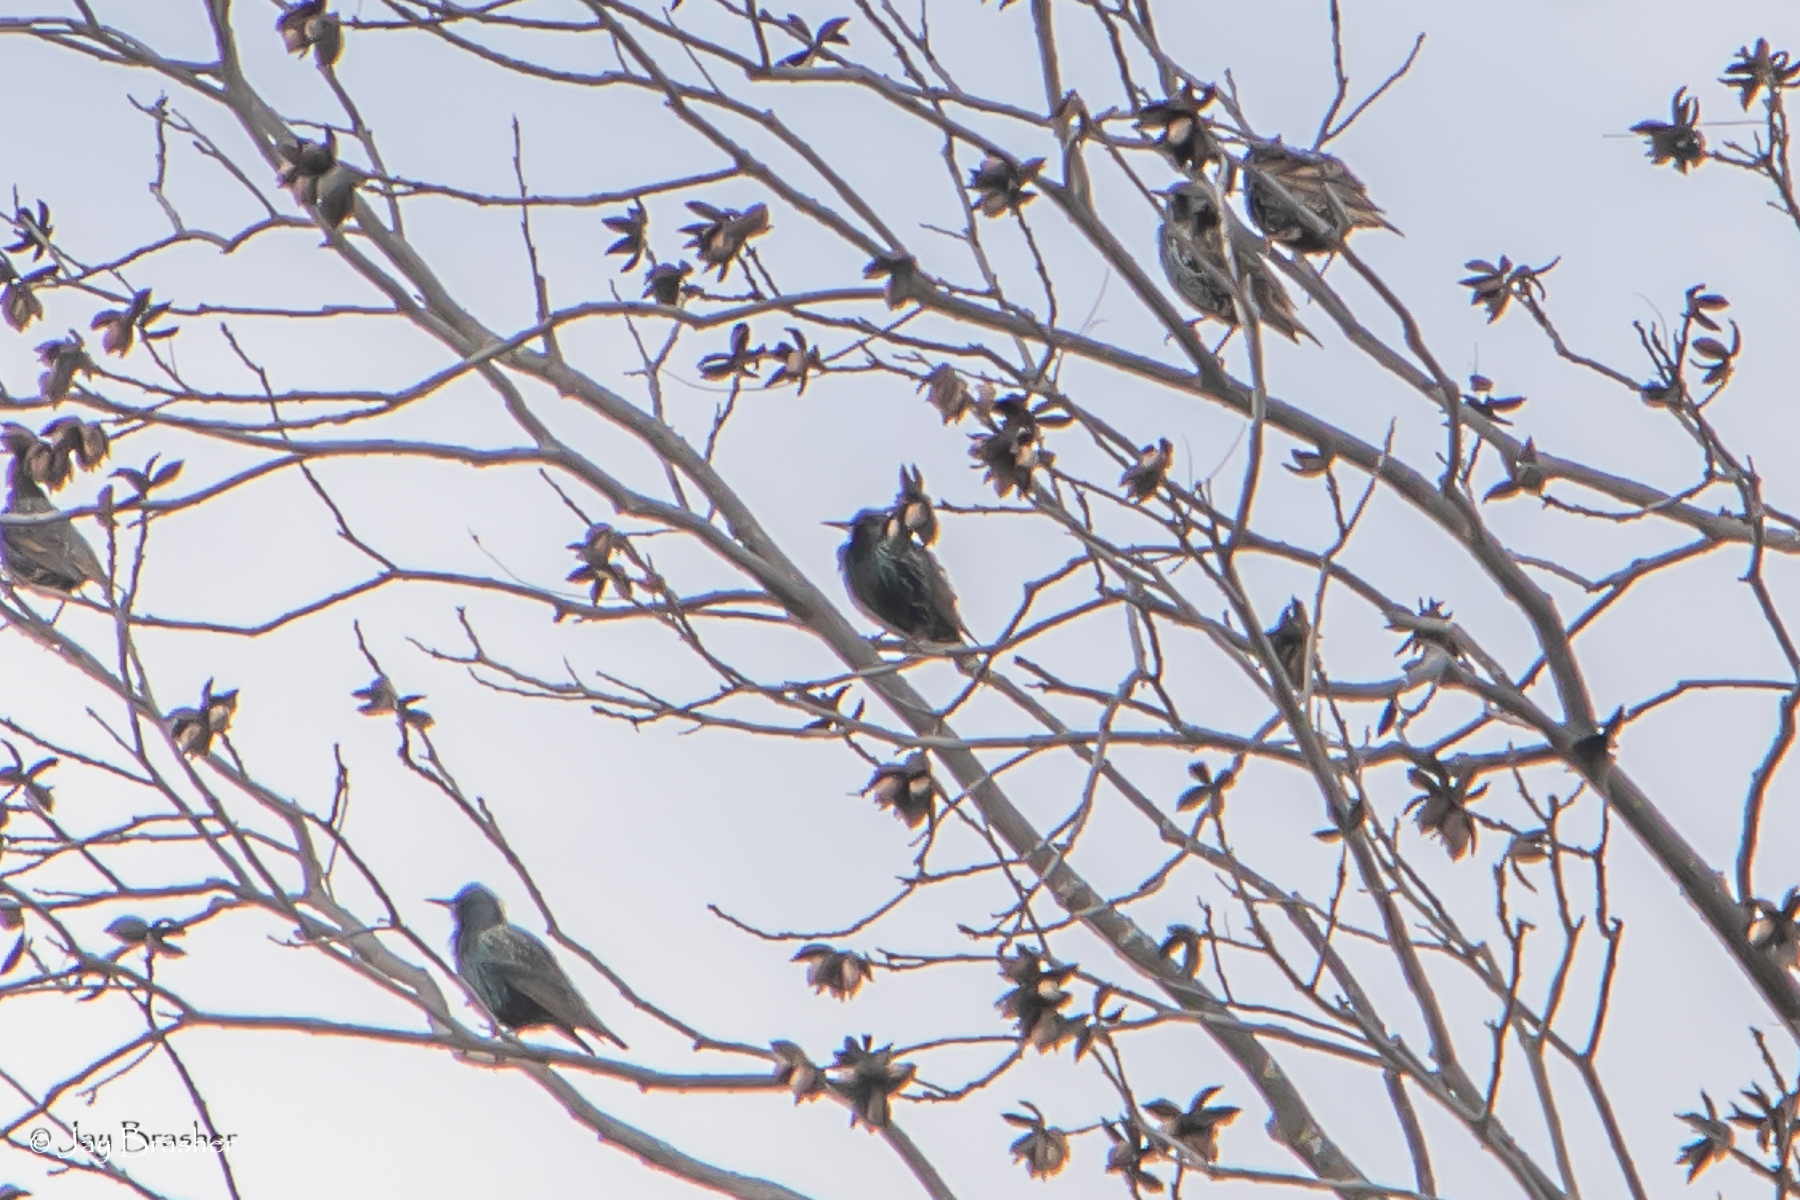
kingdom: Animalia
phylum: Chordata
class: Aves
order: Passeriformes
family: Sturnidae
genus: Sturnus
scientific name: Sturnus vulgaris
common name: Common starling
